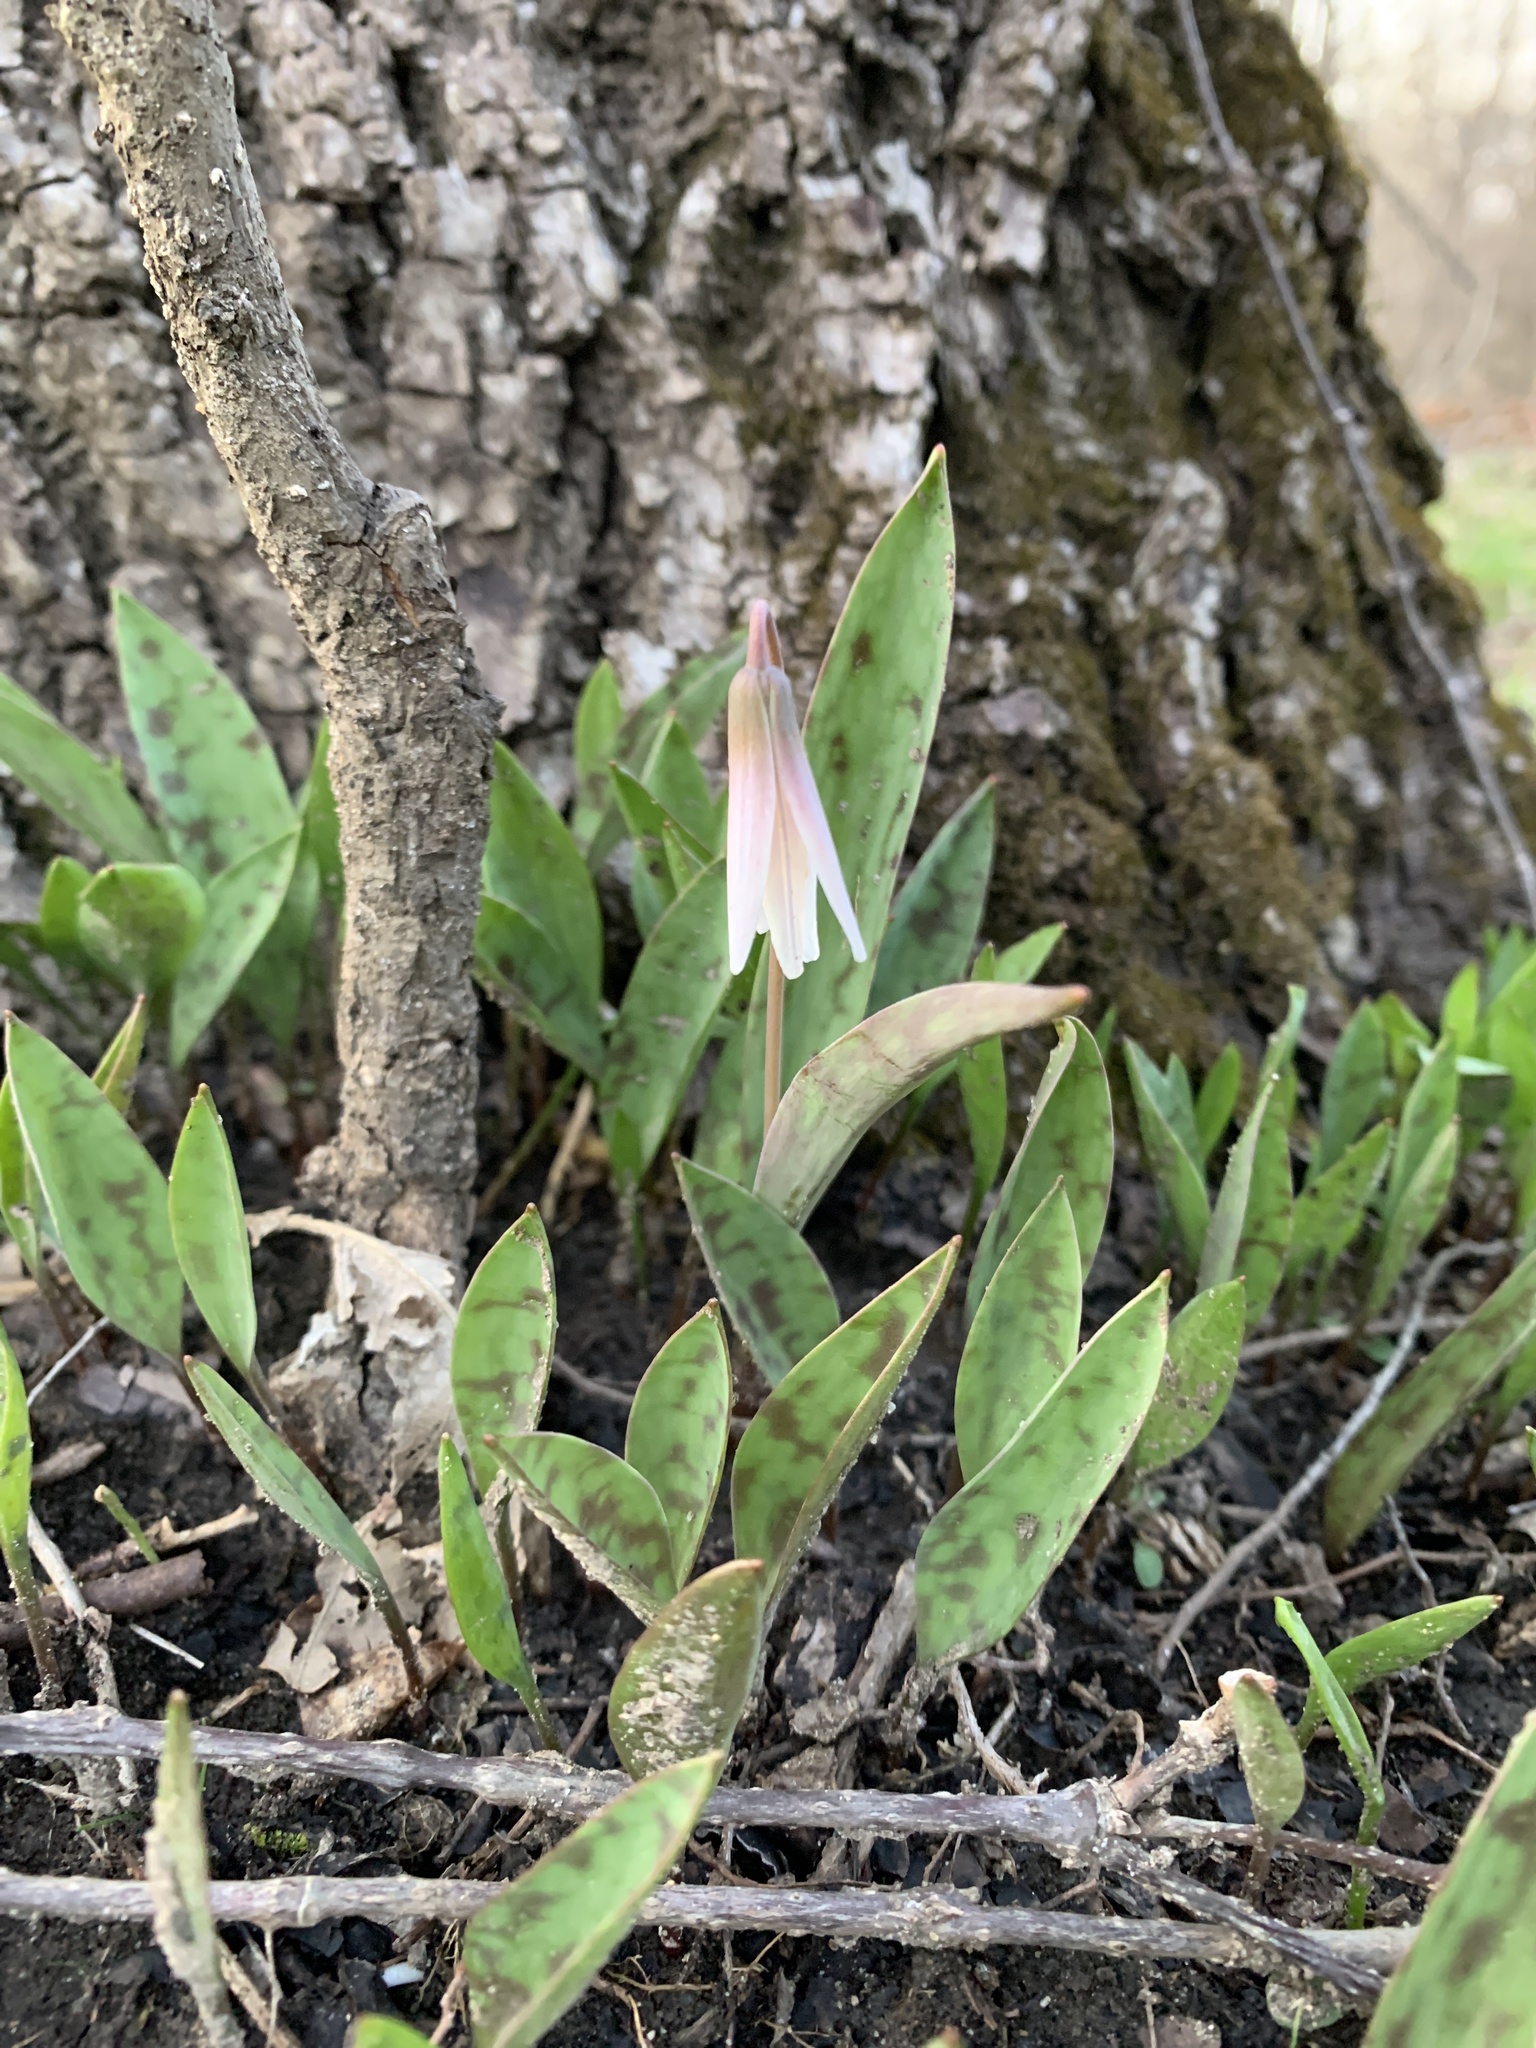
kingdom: Plantae
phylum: Tracheophyta
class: Liliopsida
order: Liliales
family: Liliaceae
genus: Erythronium
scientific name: Erythronium albidum
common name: White trout-lily
